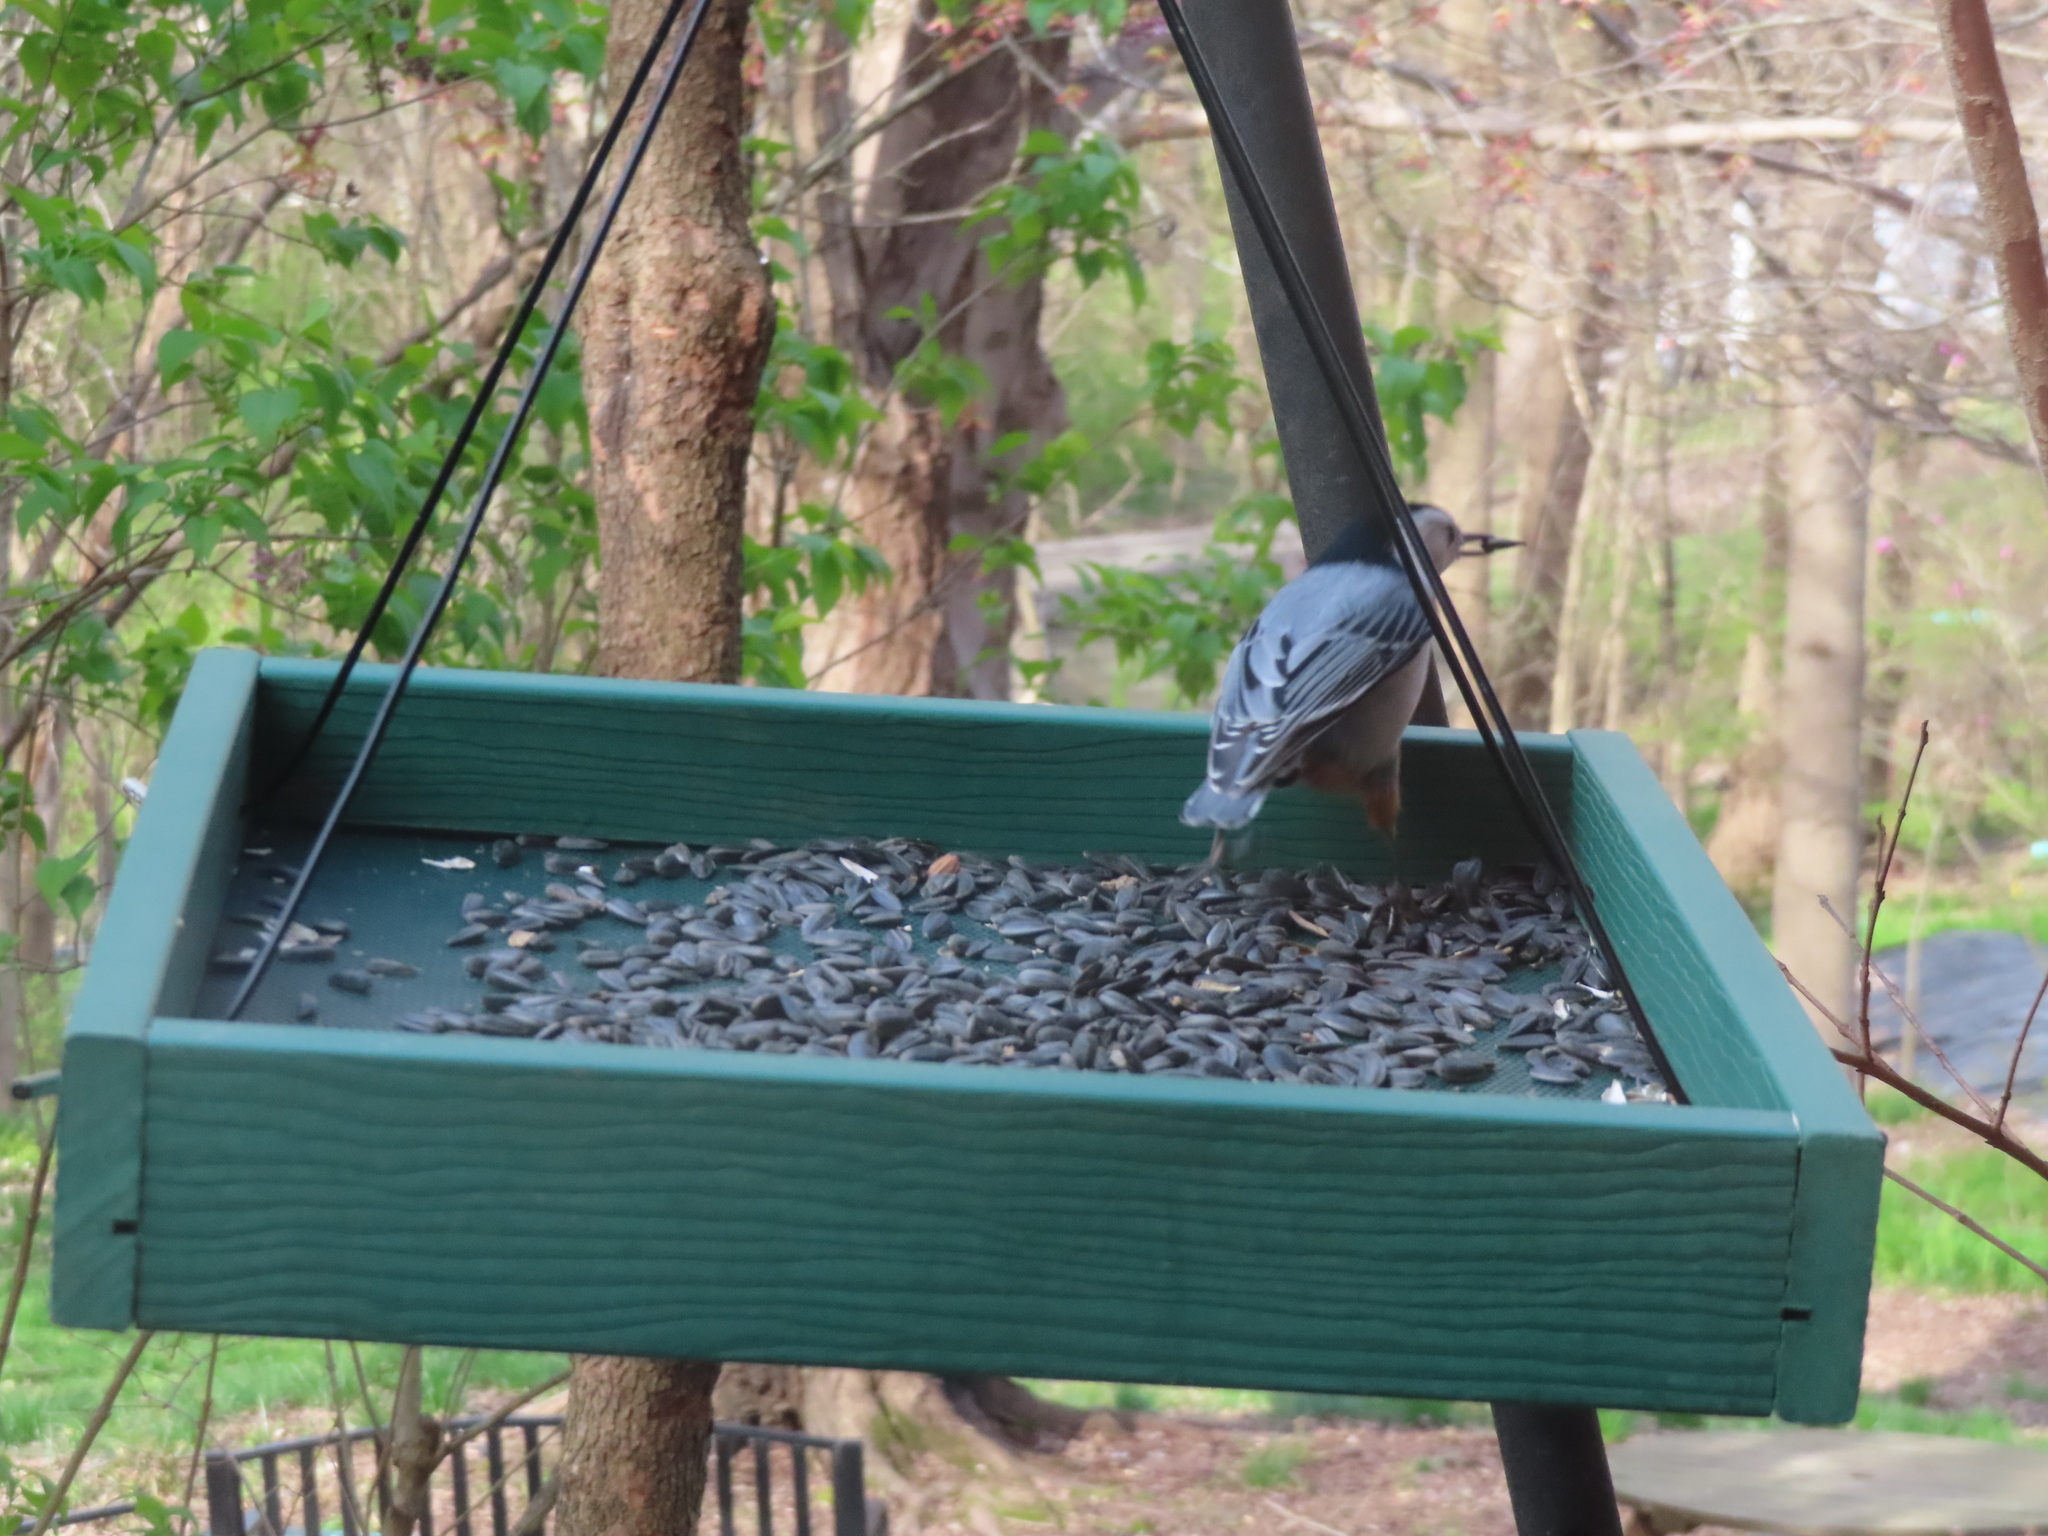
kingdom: Animalia
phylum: Chordata
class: Aves
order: Passeriformes
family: Sittidae
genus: Sitta
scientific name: Sitta carolinensis
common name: White-breasted nuthatch
